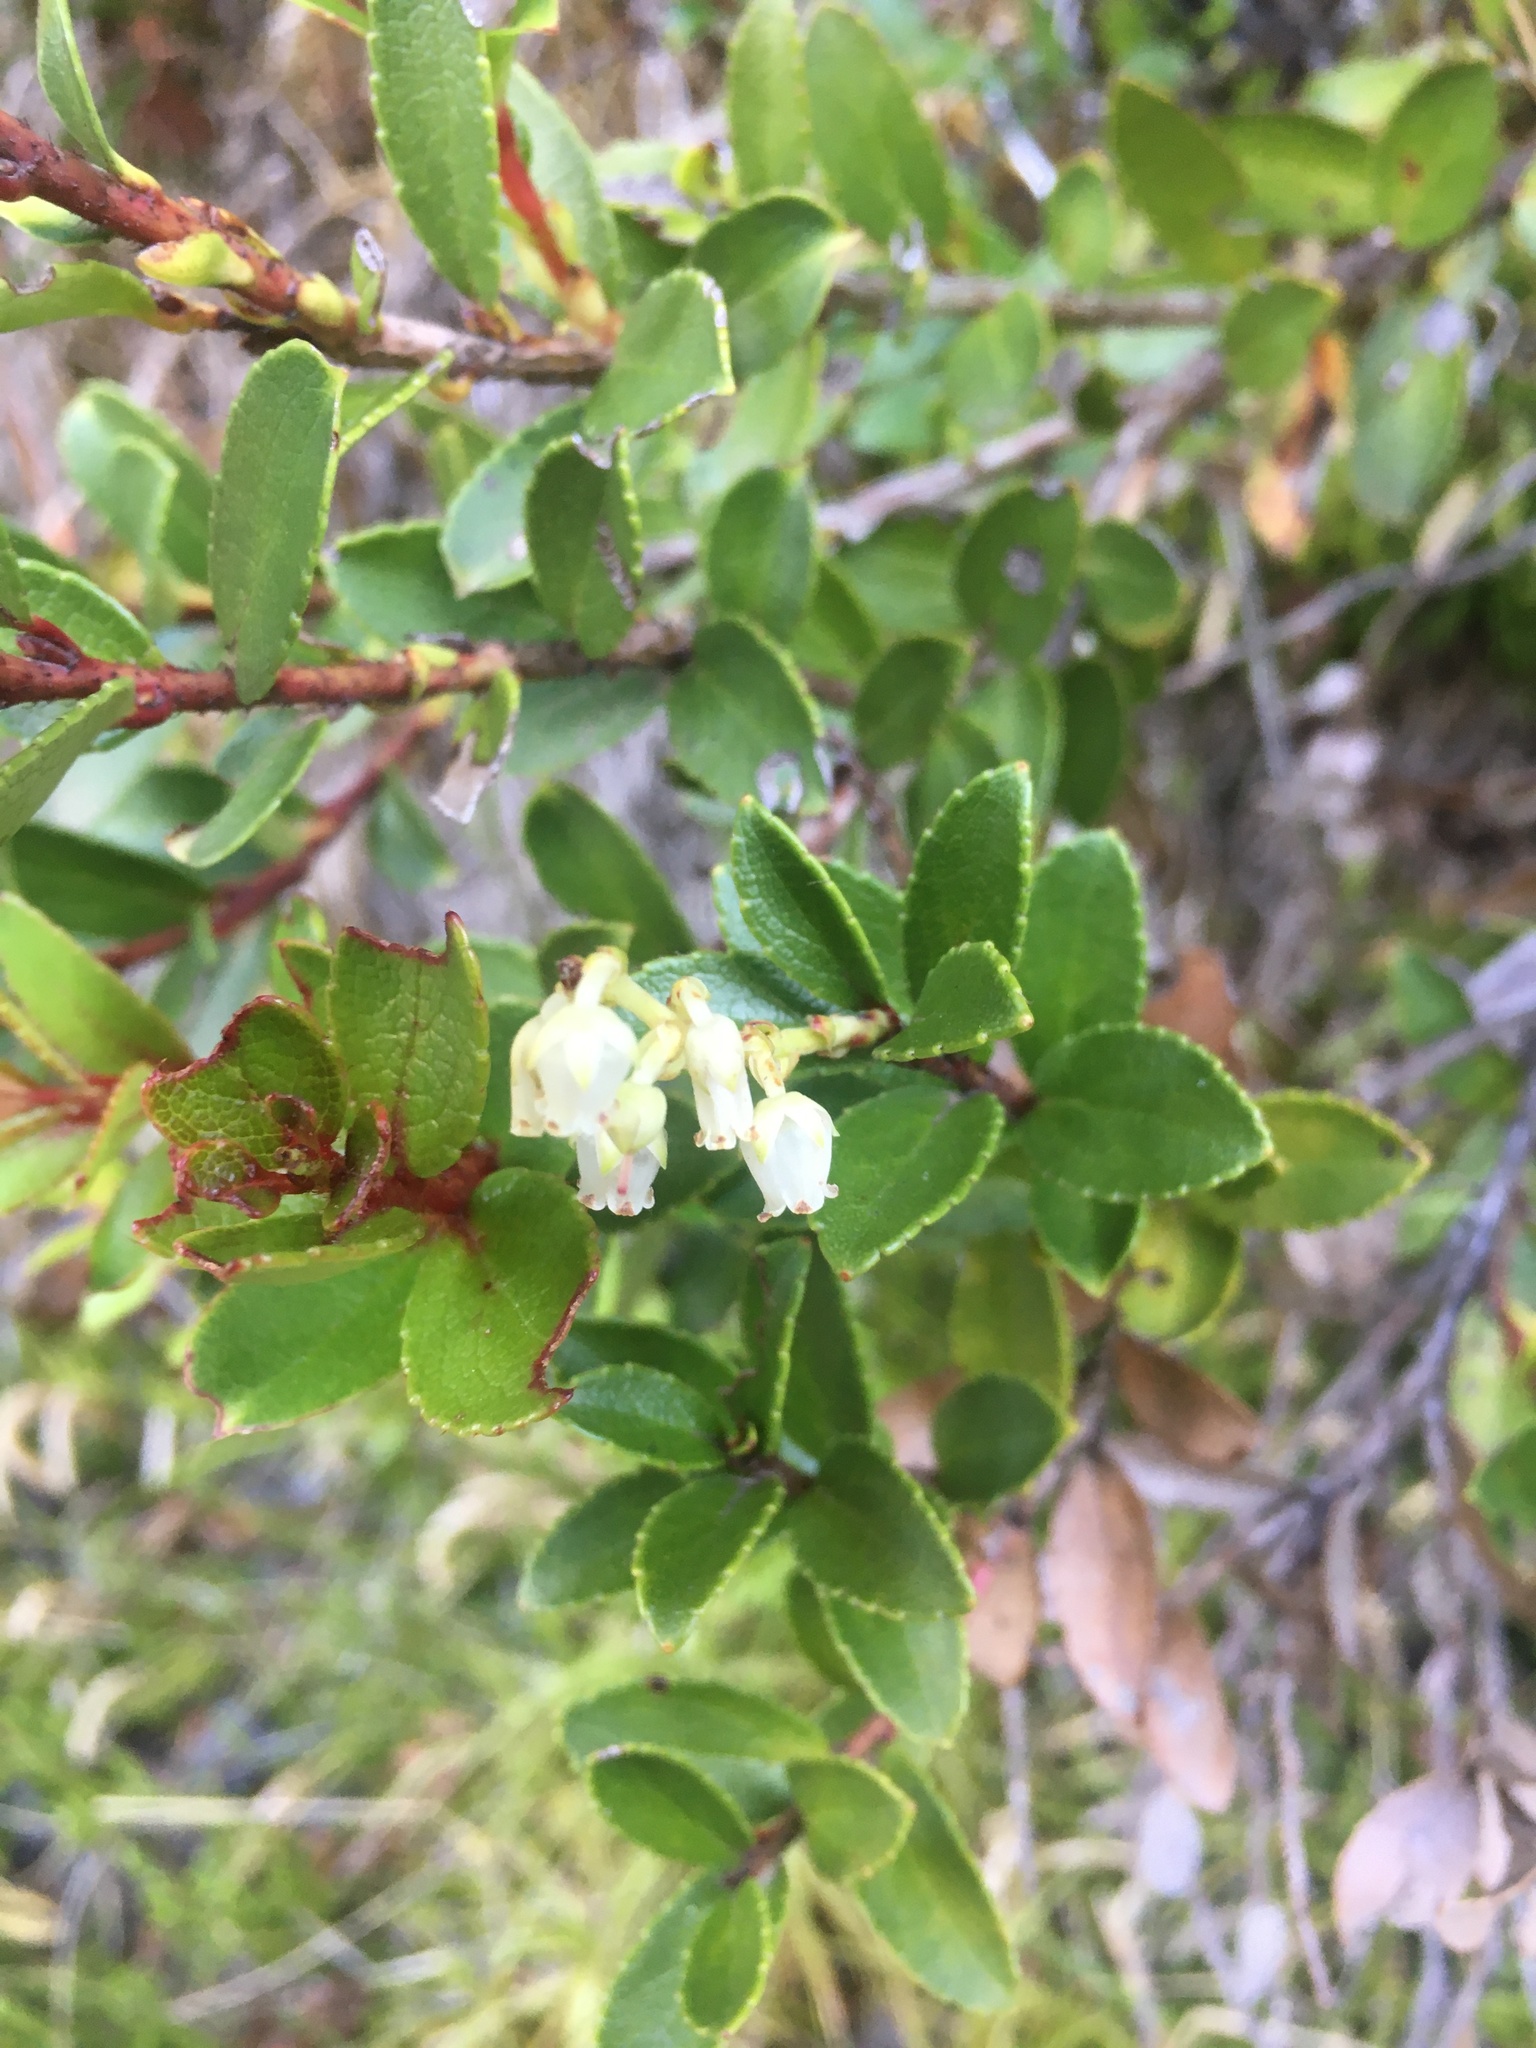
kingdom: Plantae
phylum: Tracheophyta
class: Magnoliopsida
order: Ericales
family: Ericaceae
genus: Gaultheria
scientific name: Gaultheria crassa
